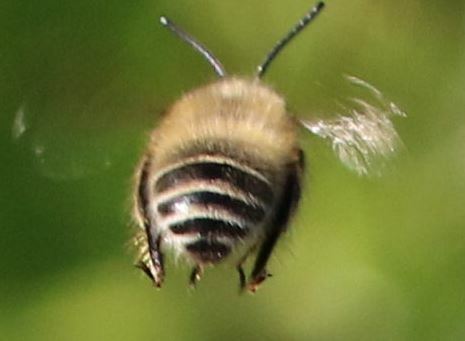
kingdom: Animalia
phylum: Arthropoda
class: Insecta
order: Hymenoptera
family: Apidae
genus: Anthophora
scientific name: Anthophora crinipes
